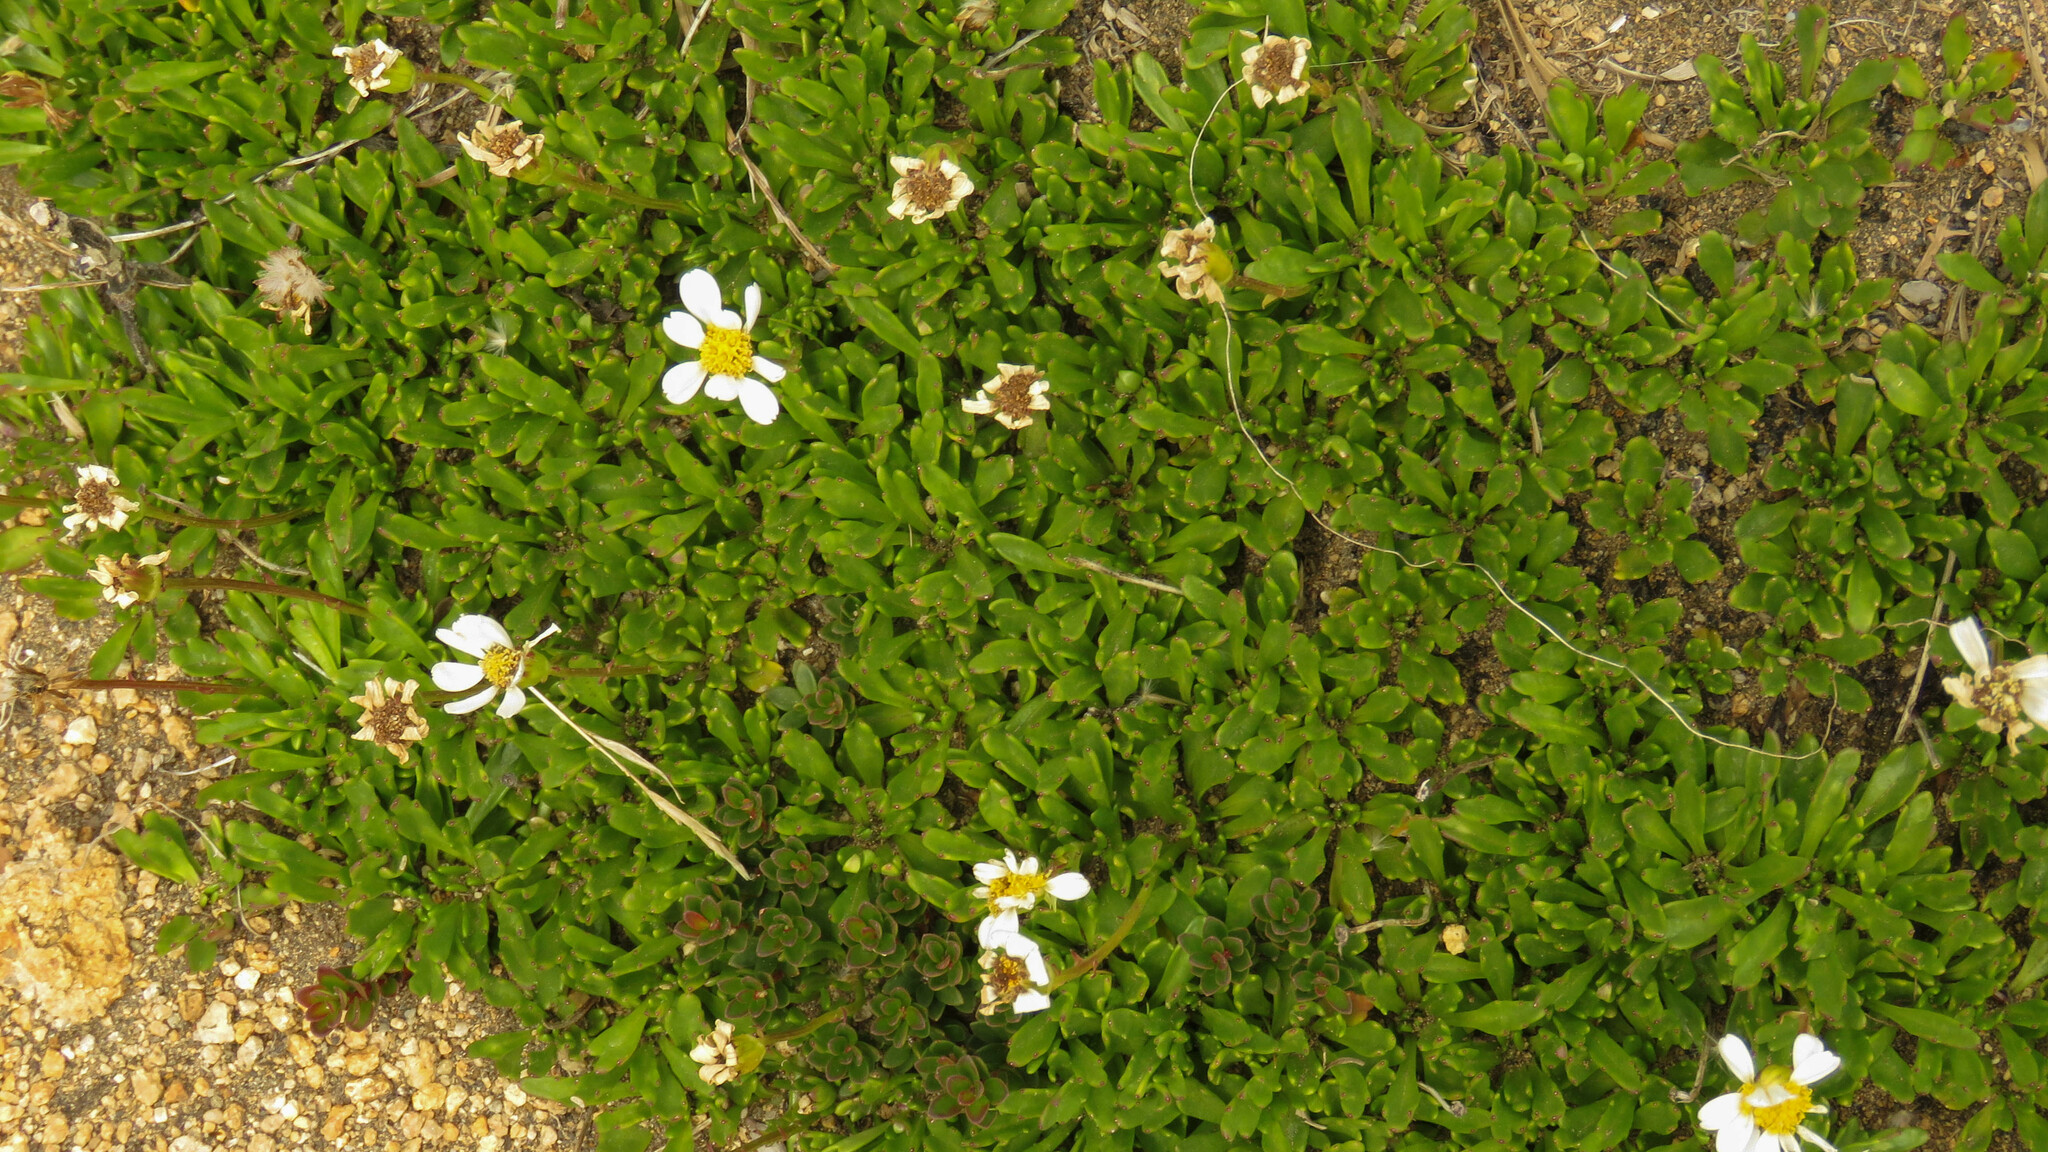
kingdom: Plantae
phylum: Tracheophyta
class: Magnoliopsida
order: Asterales
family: Asteraceae
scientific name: Asteraceae
